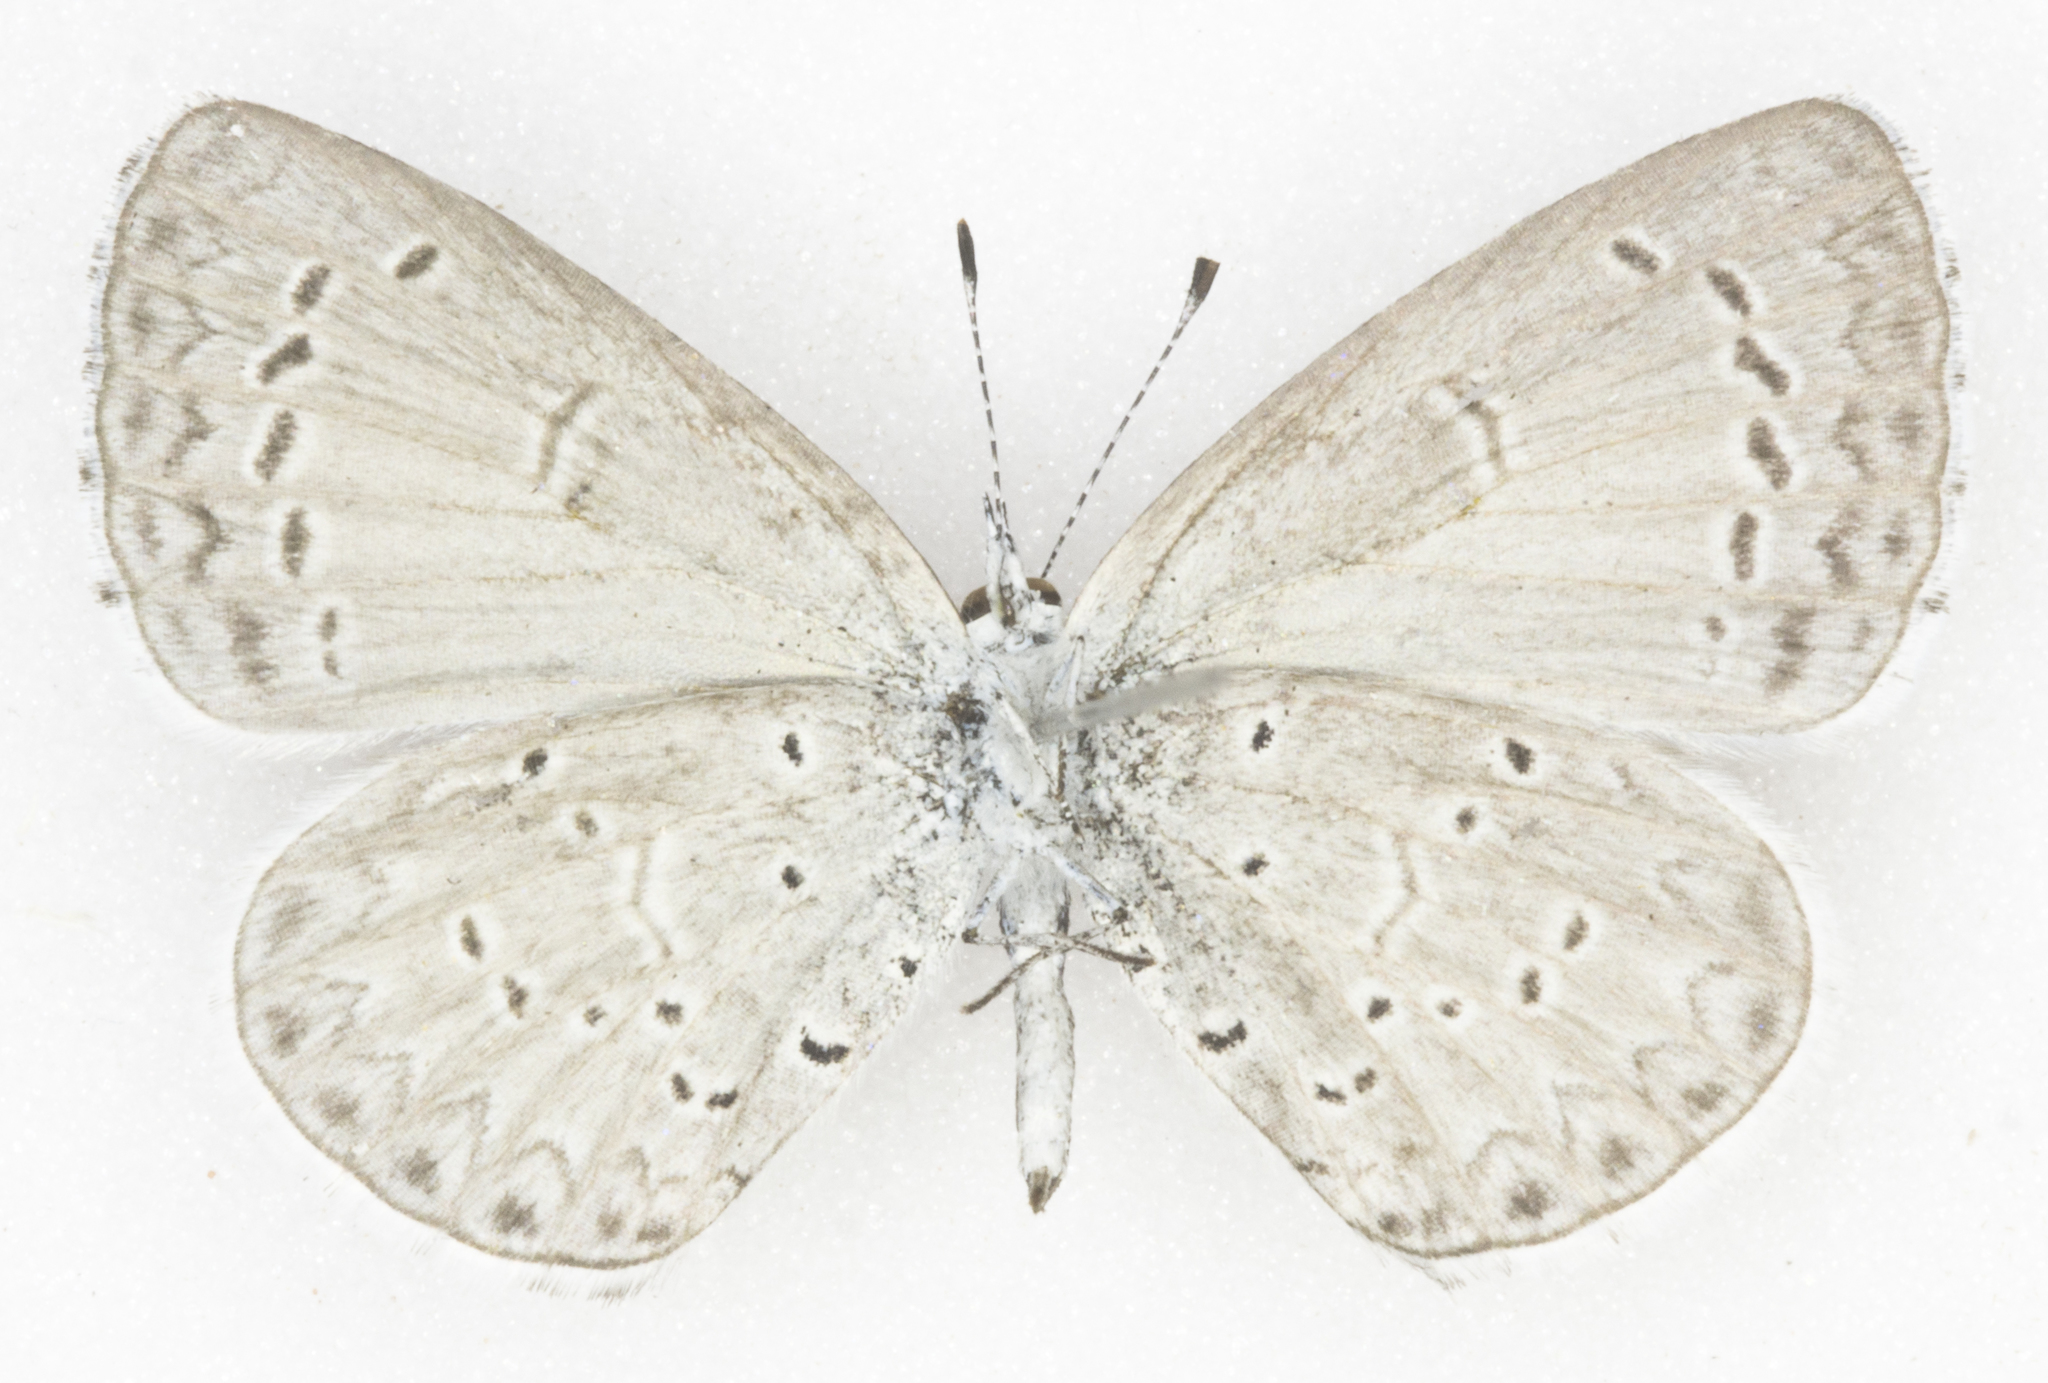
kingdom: Animalia
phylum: Arthropoda
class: Insecta
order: Lepidoptera
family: Lycaenidae
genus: Celastrina
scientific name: Celastrina ladon
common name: Spring azure
